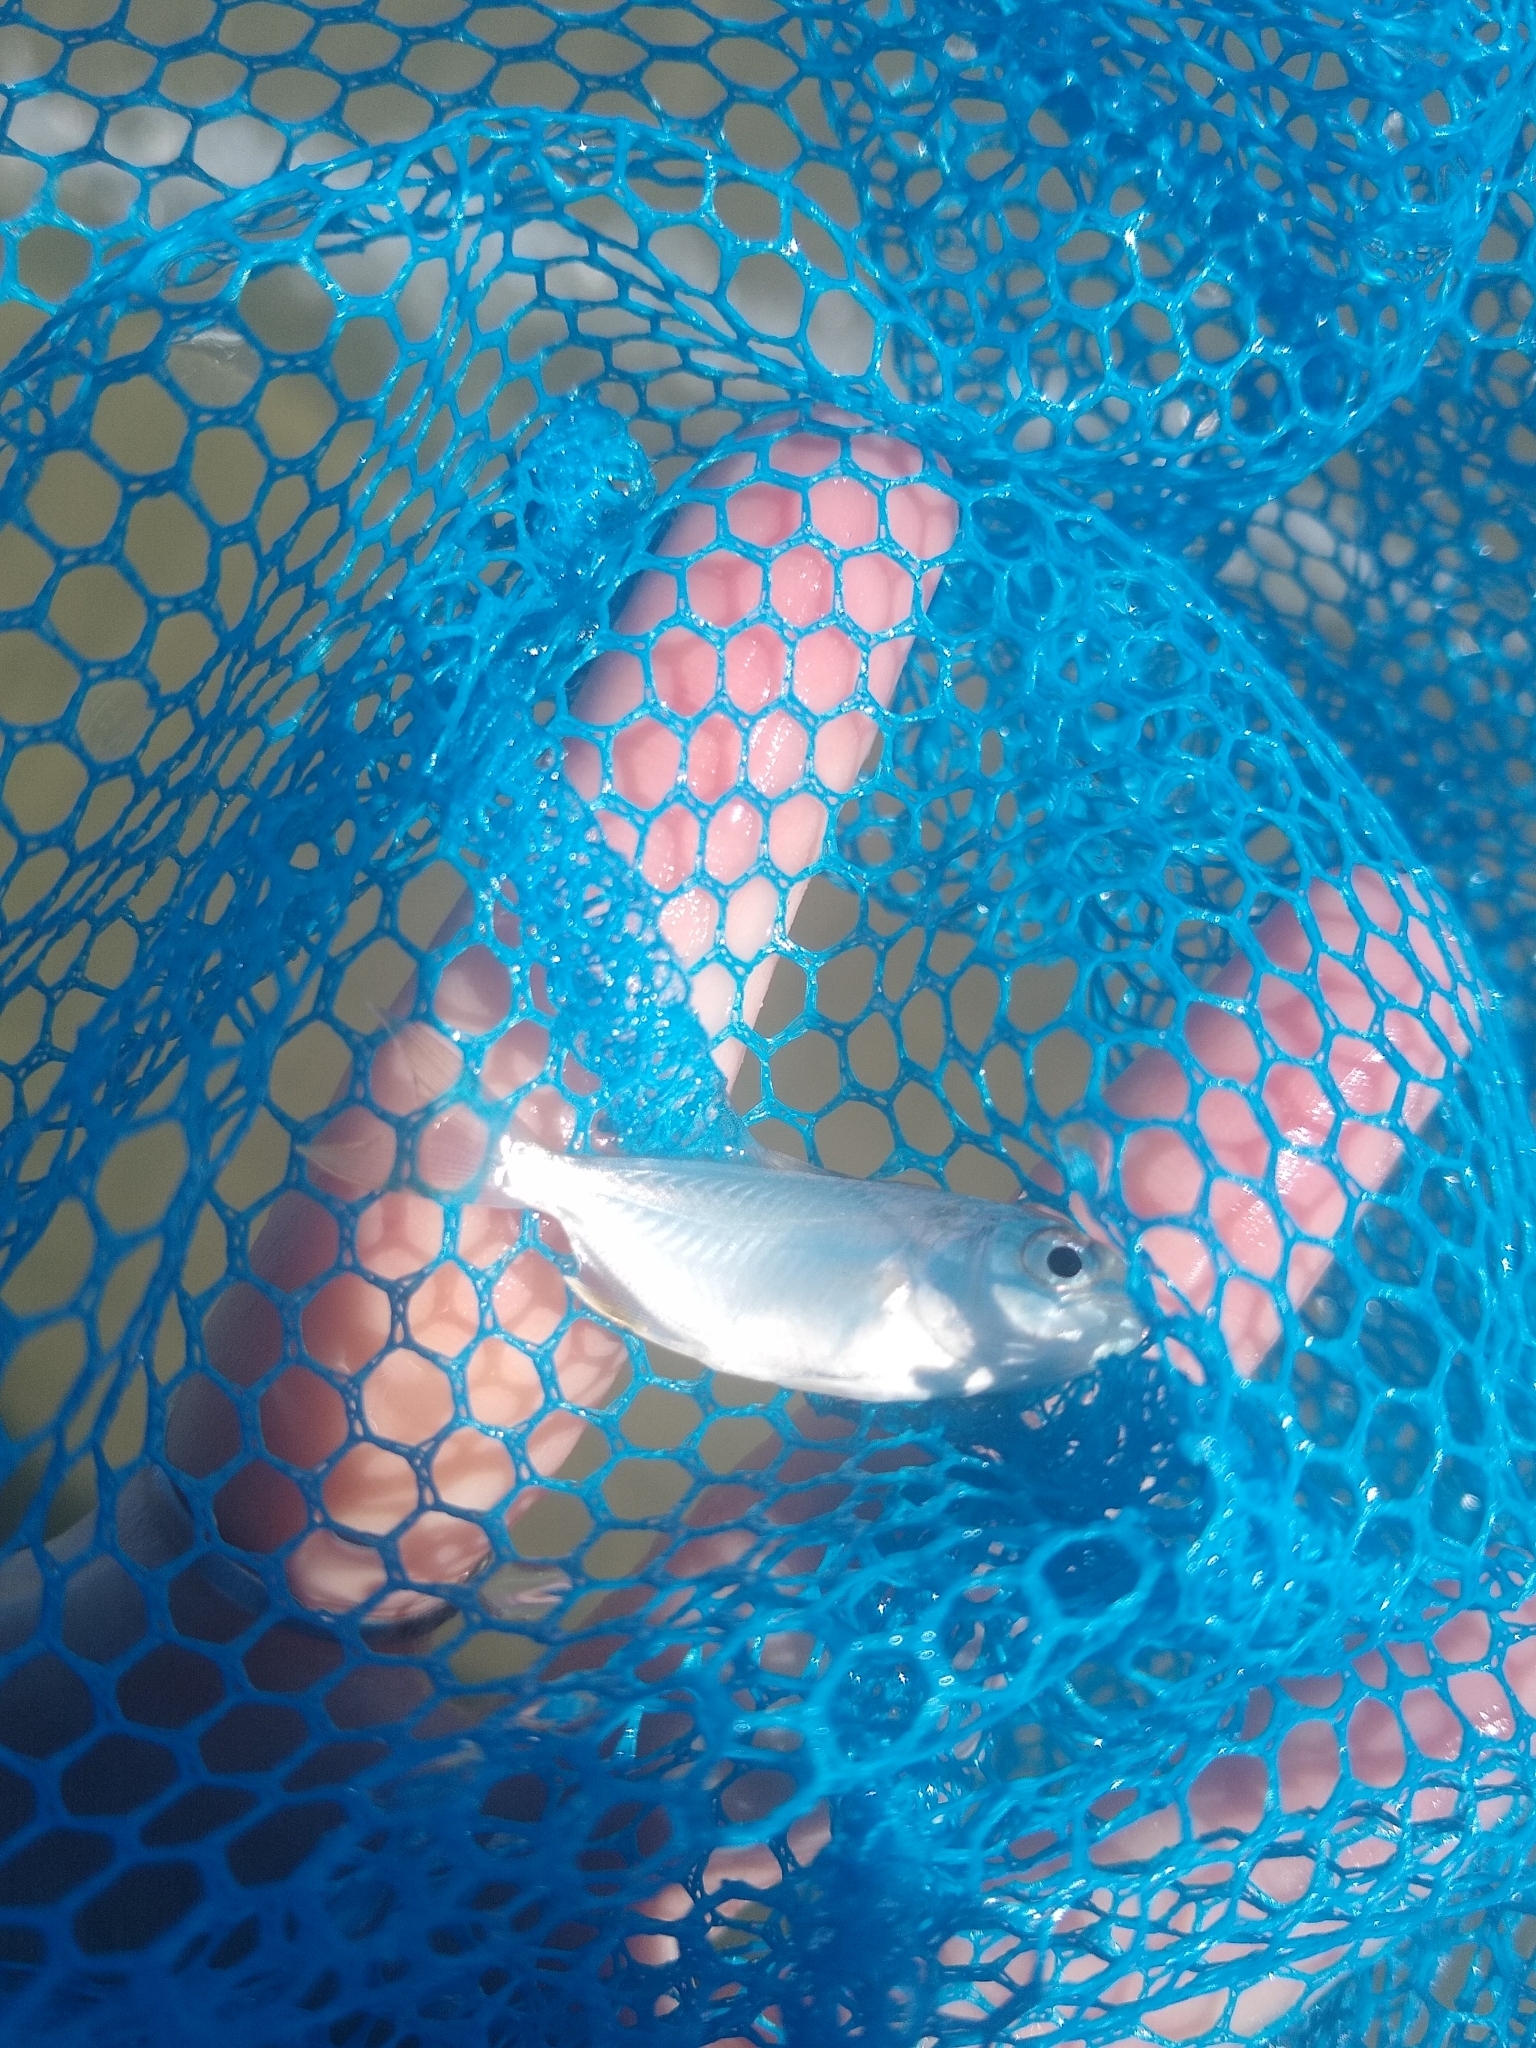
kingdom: Animalia
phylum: Chordata
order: Perciformes
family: Sciaenidae
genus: Leiostomus
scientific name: Leiostomus xanthurus
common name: Spot
